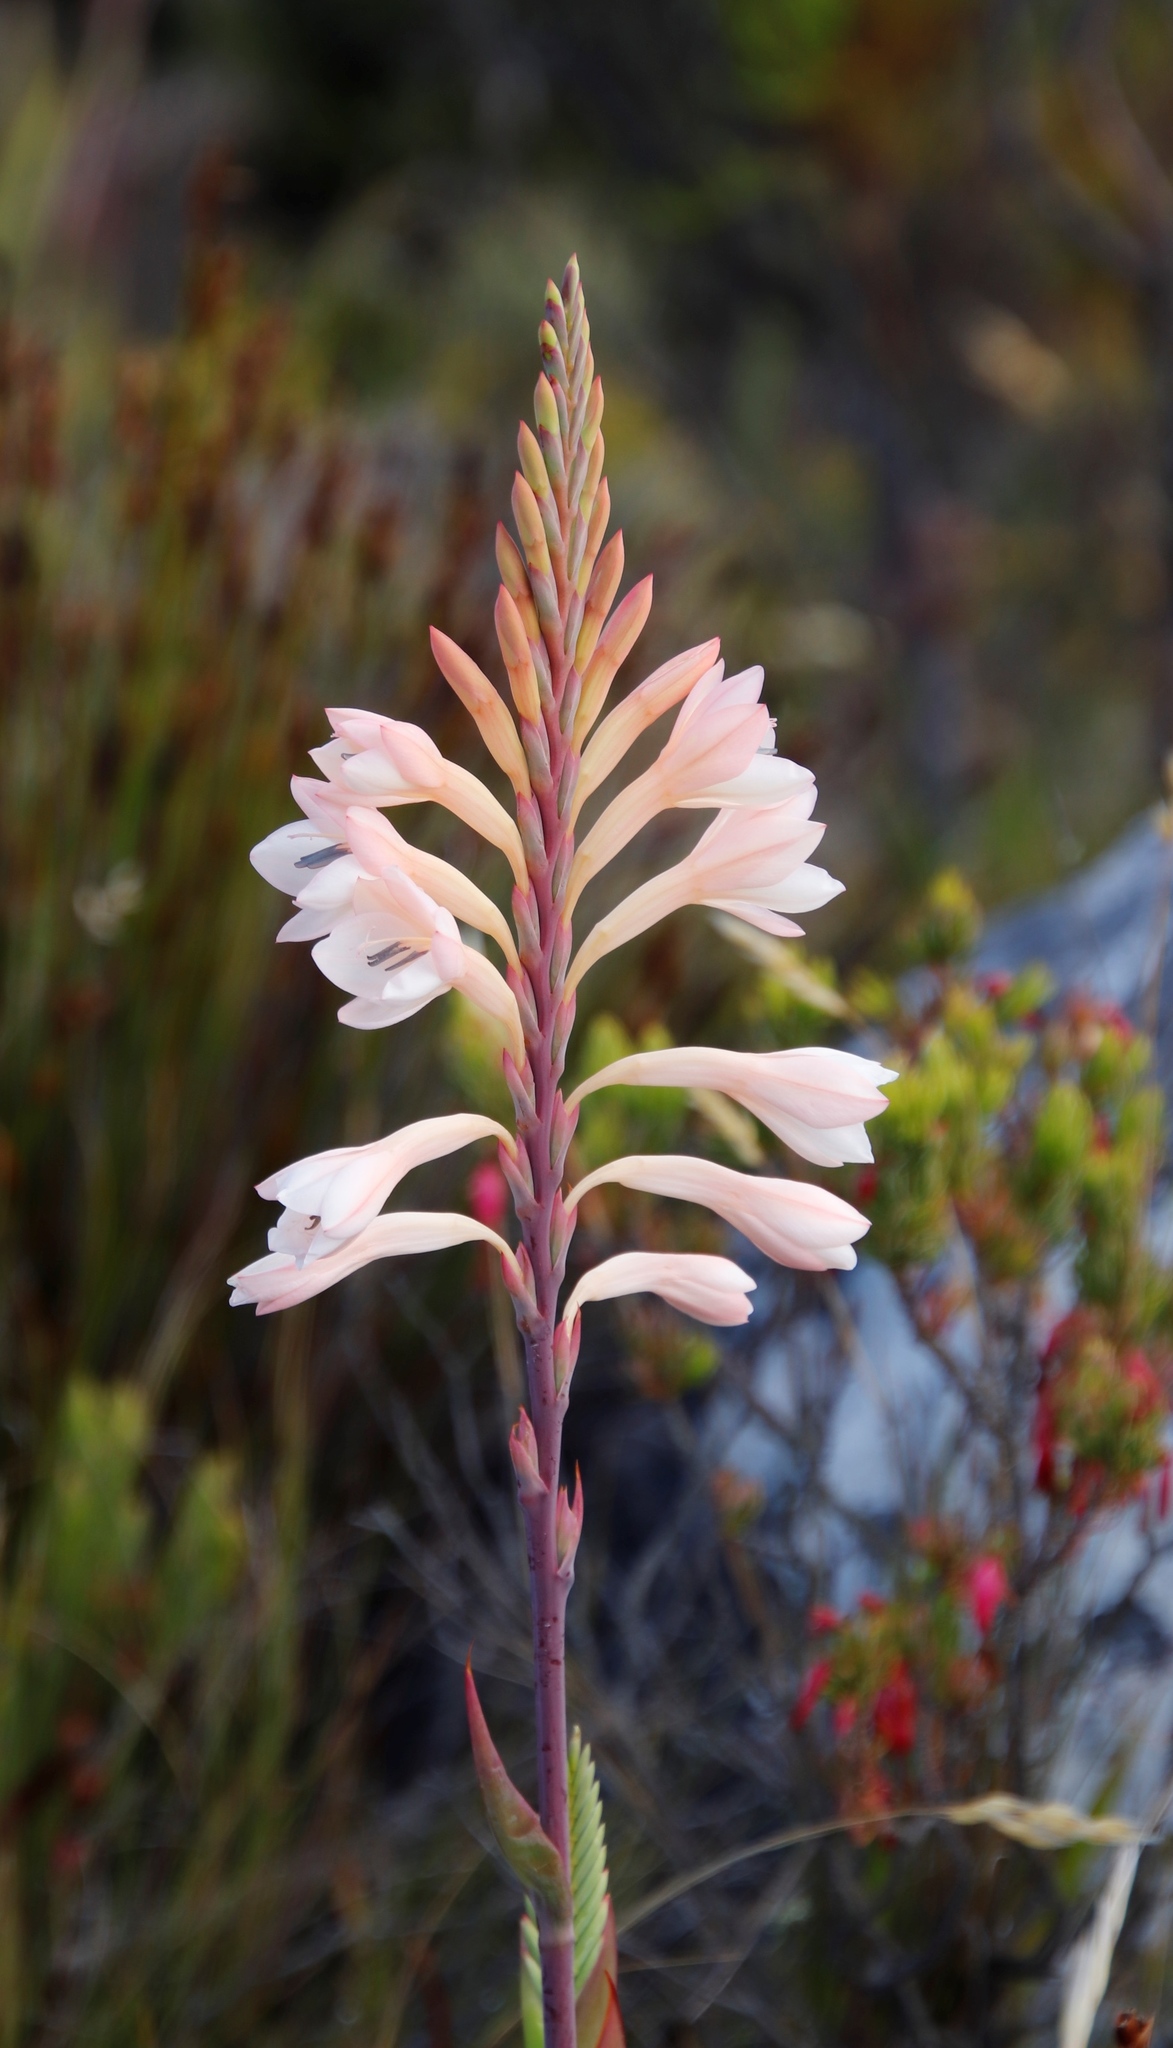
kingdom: Plantae
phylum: Tracheophyta
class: Liliopsida
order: Asparagales
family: Iridaceae
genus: Watsonia
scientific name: Watsonia tabularis
